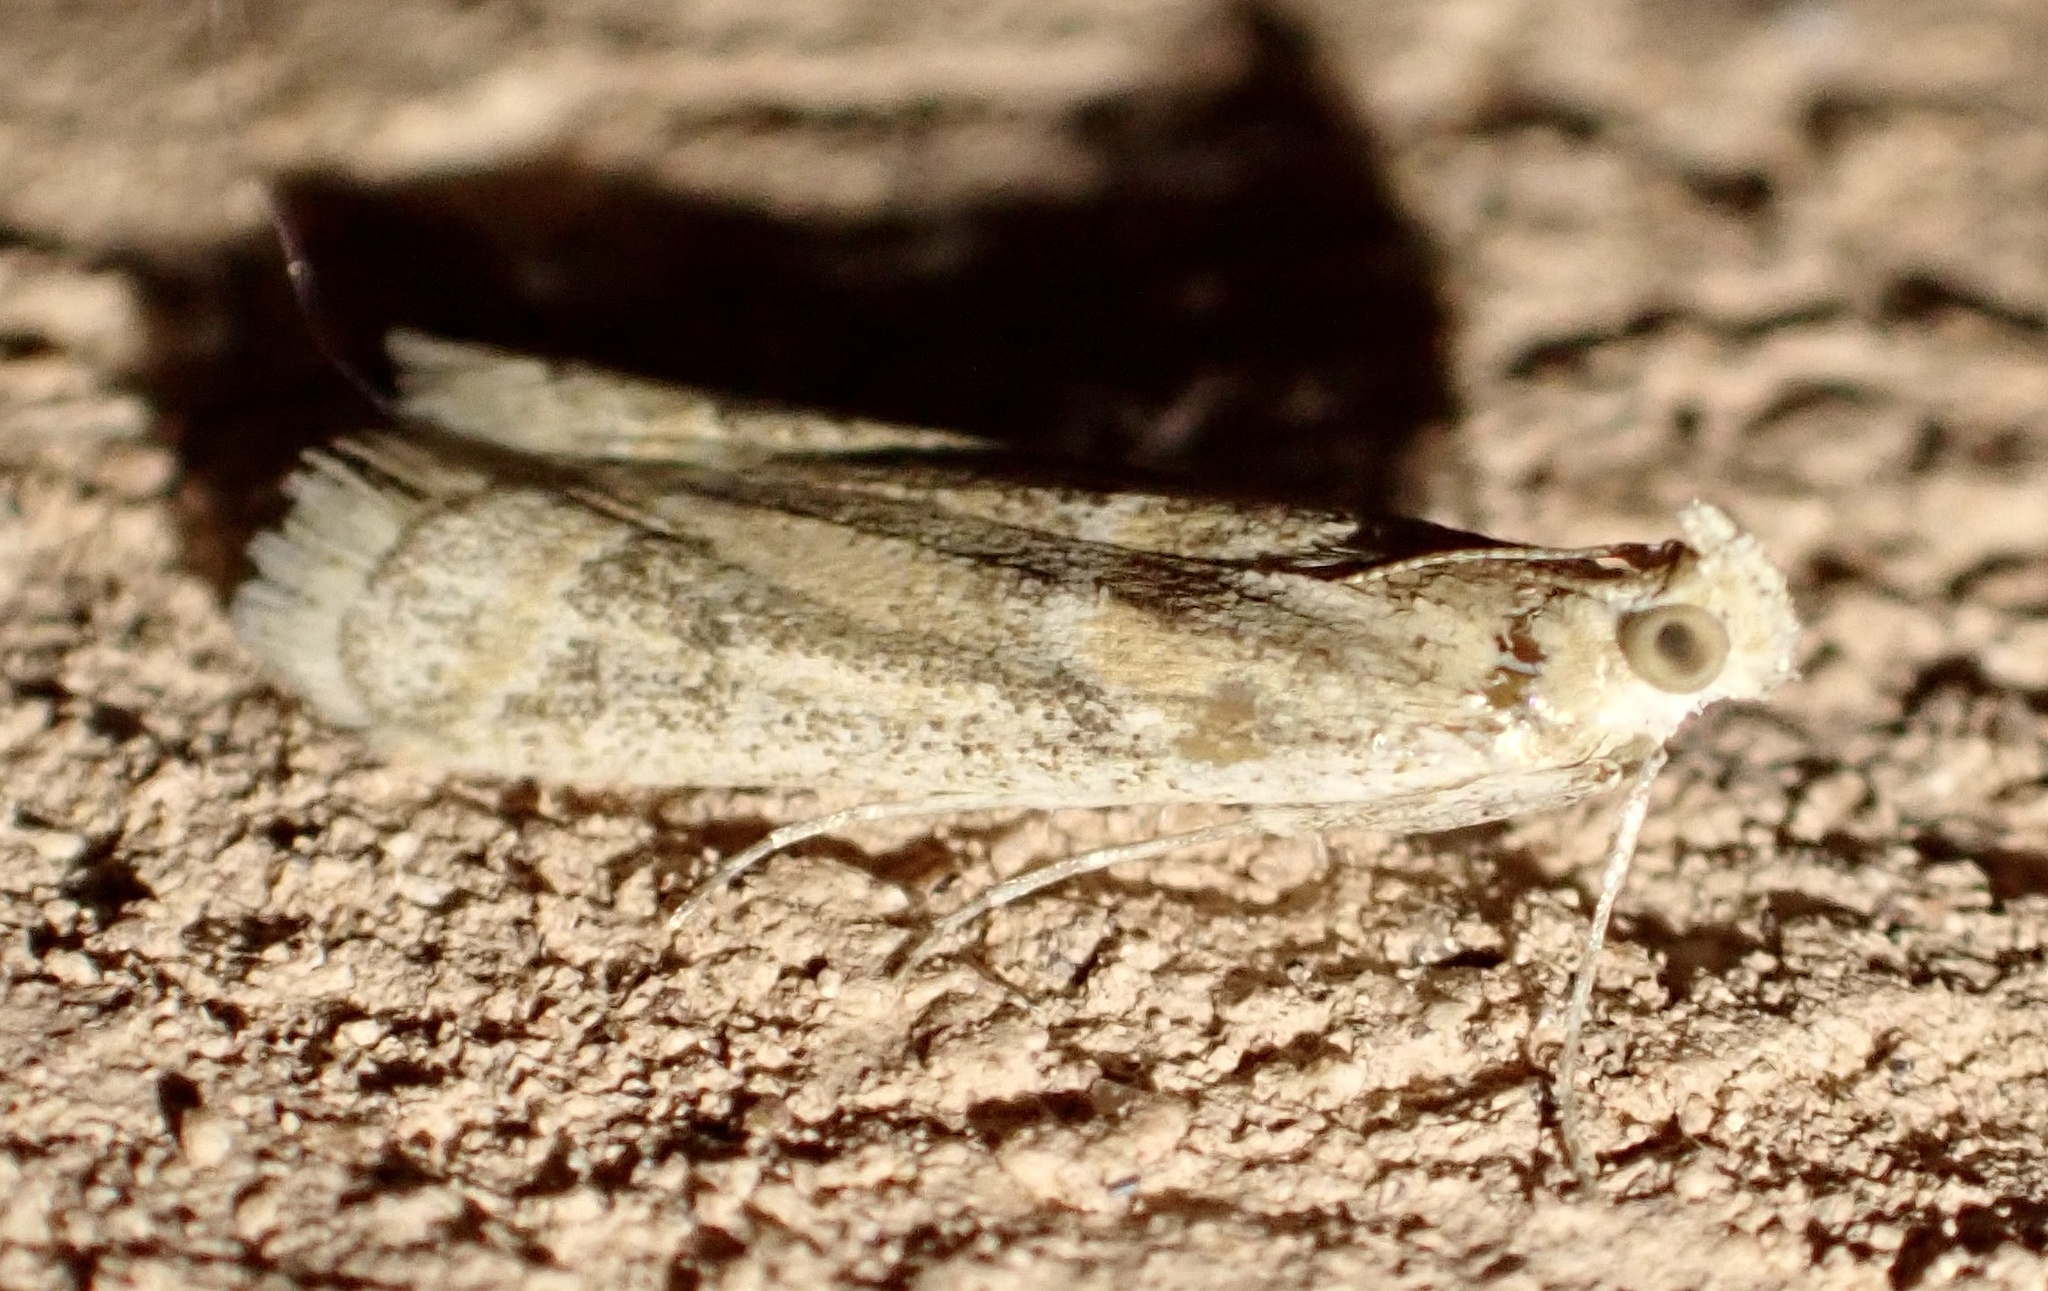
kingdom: Animalia
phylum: Arthropoda
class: Insecta
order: Lepidoptera
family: Pyralidae
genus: Ancylosis
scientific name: Ancylosis samaritanella
